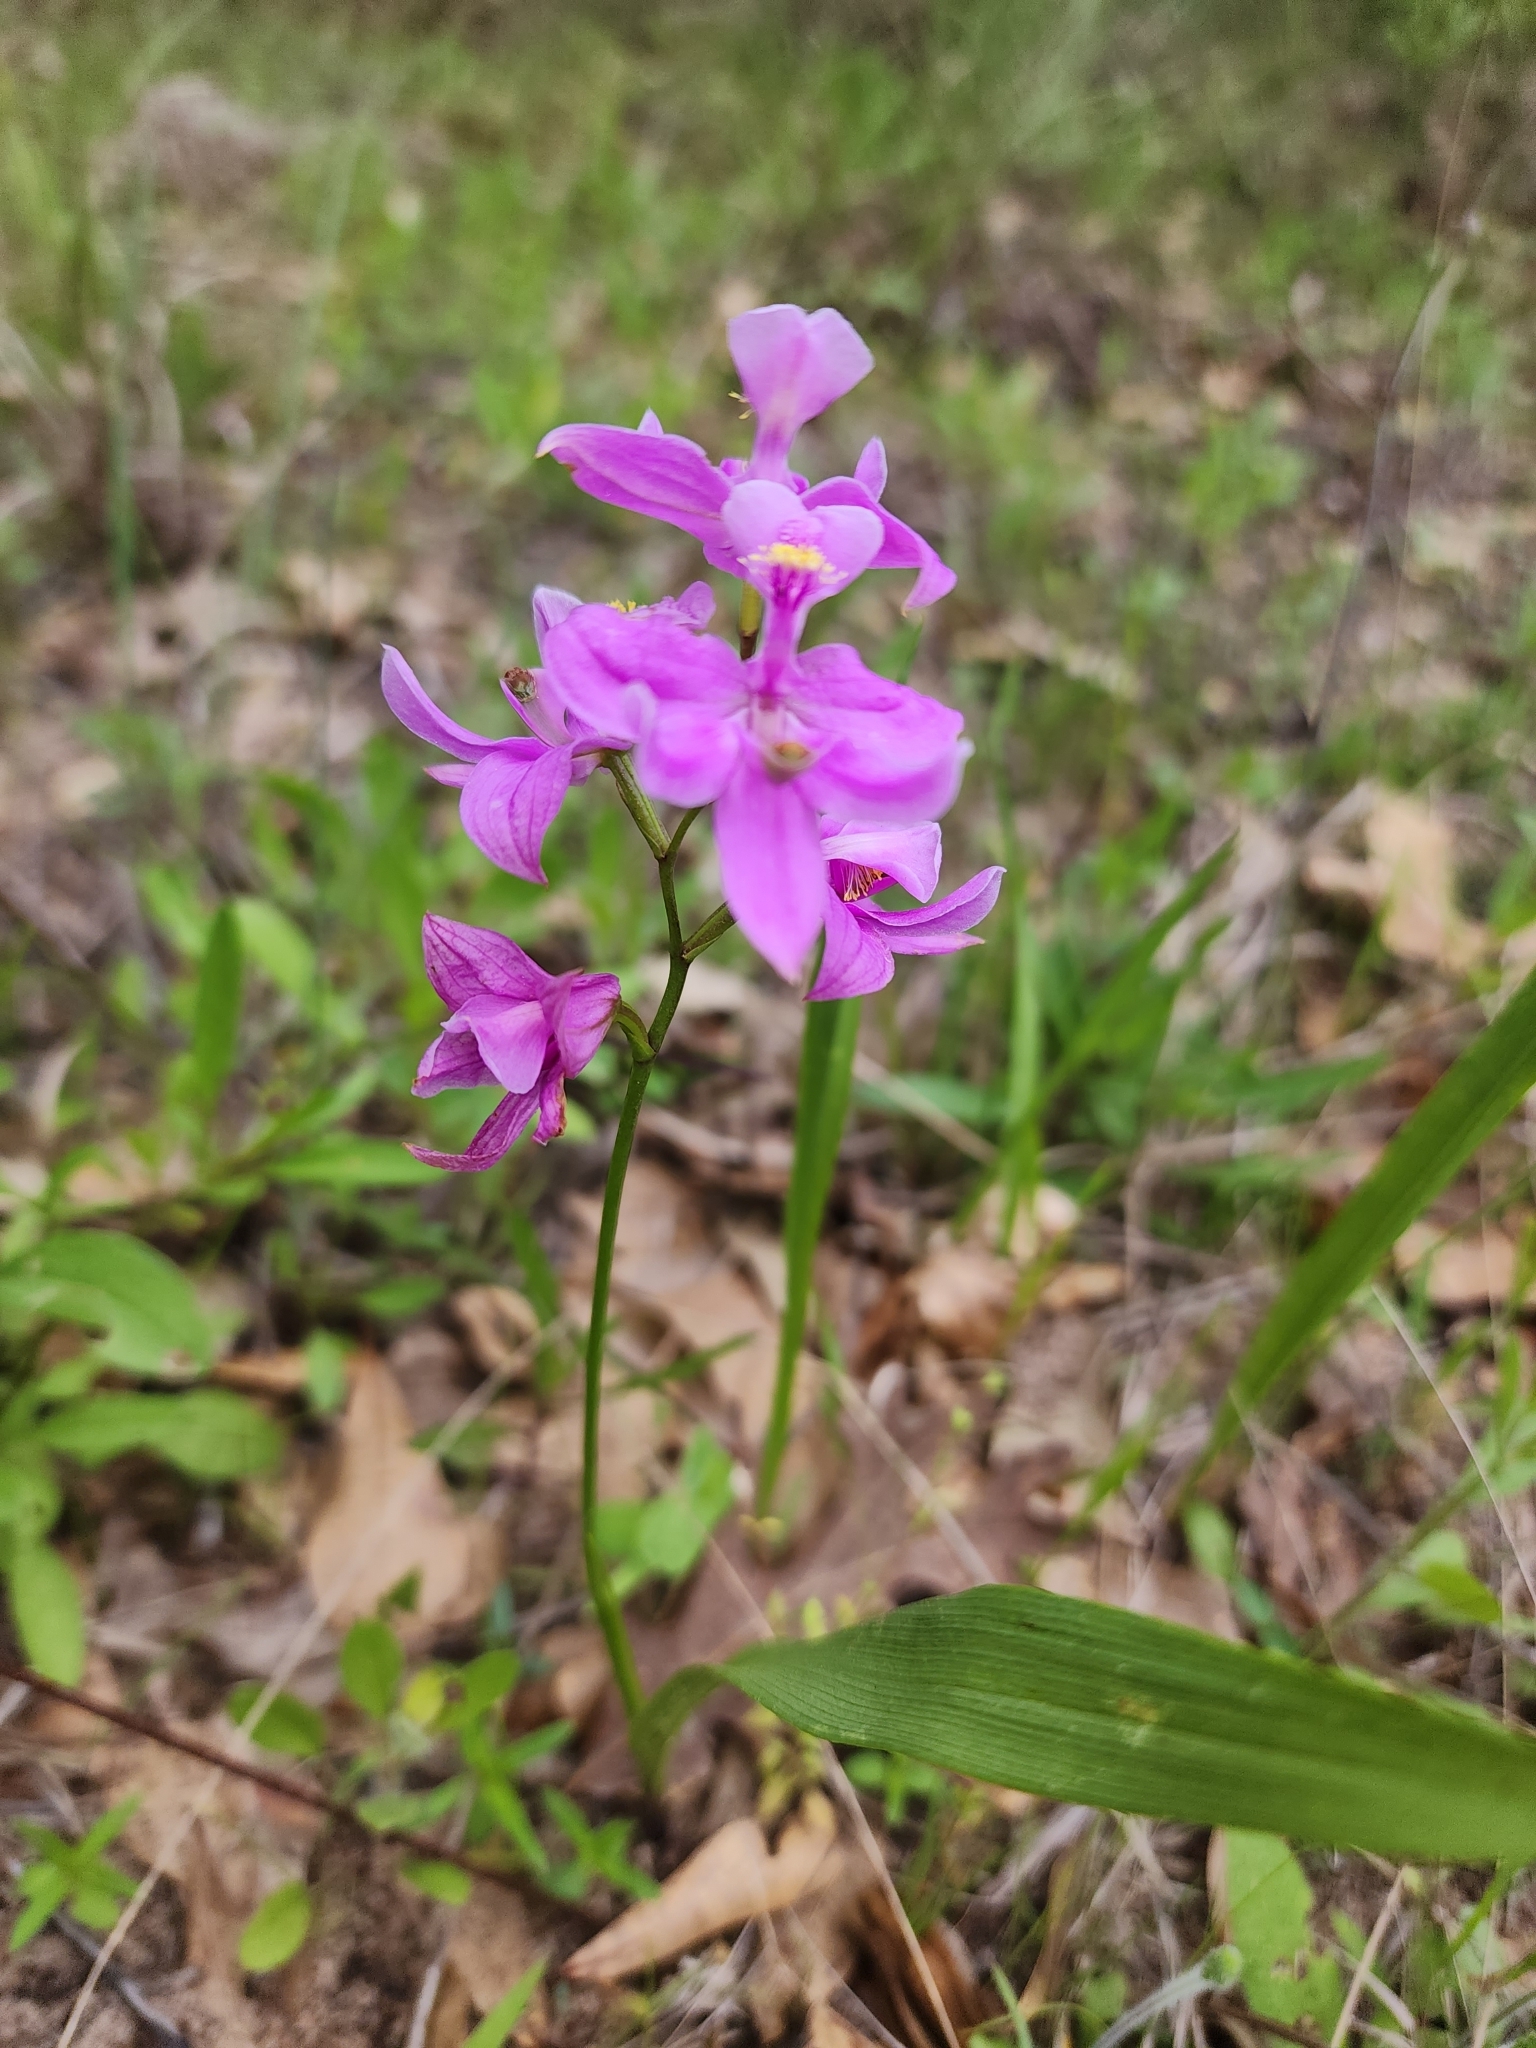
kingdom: Plantae
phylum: Tracheophyta
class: Liliopsida
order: Asparagales
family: Orchidaceae
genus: Calopogon
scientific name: Calopogon oklahomensis
